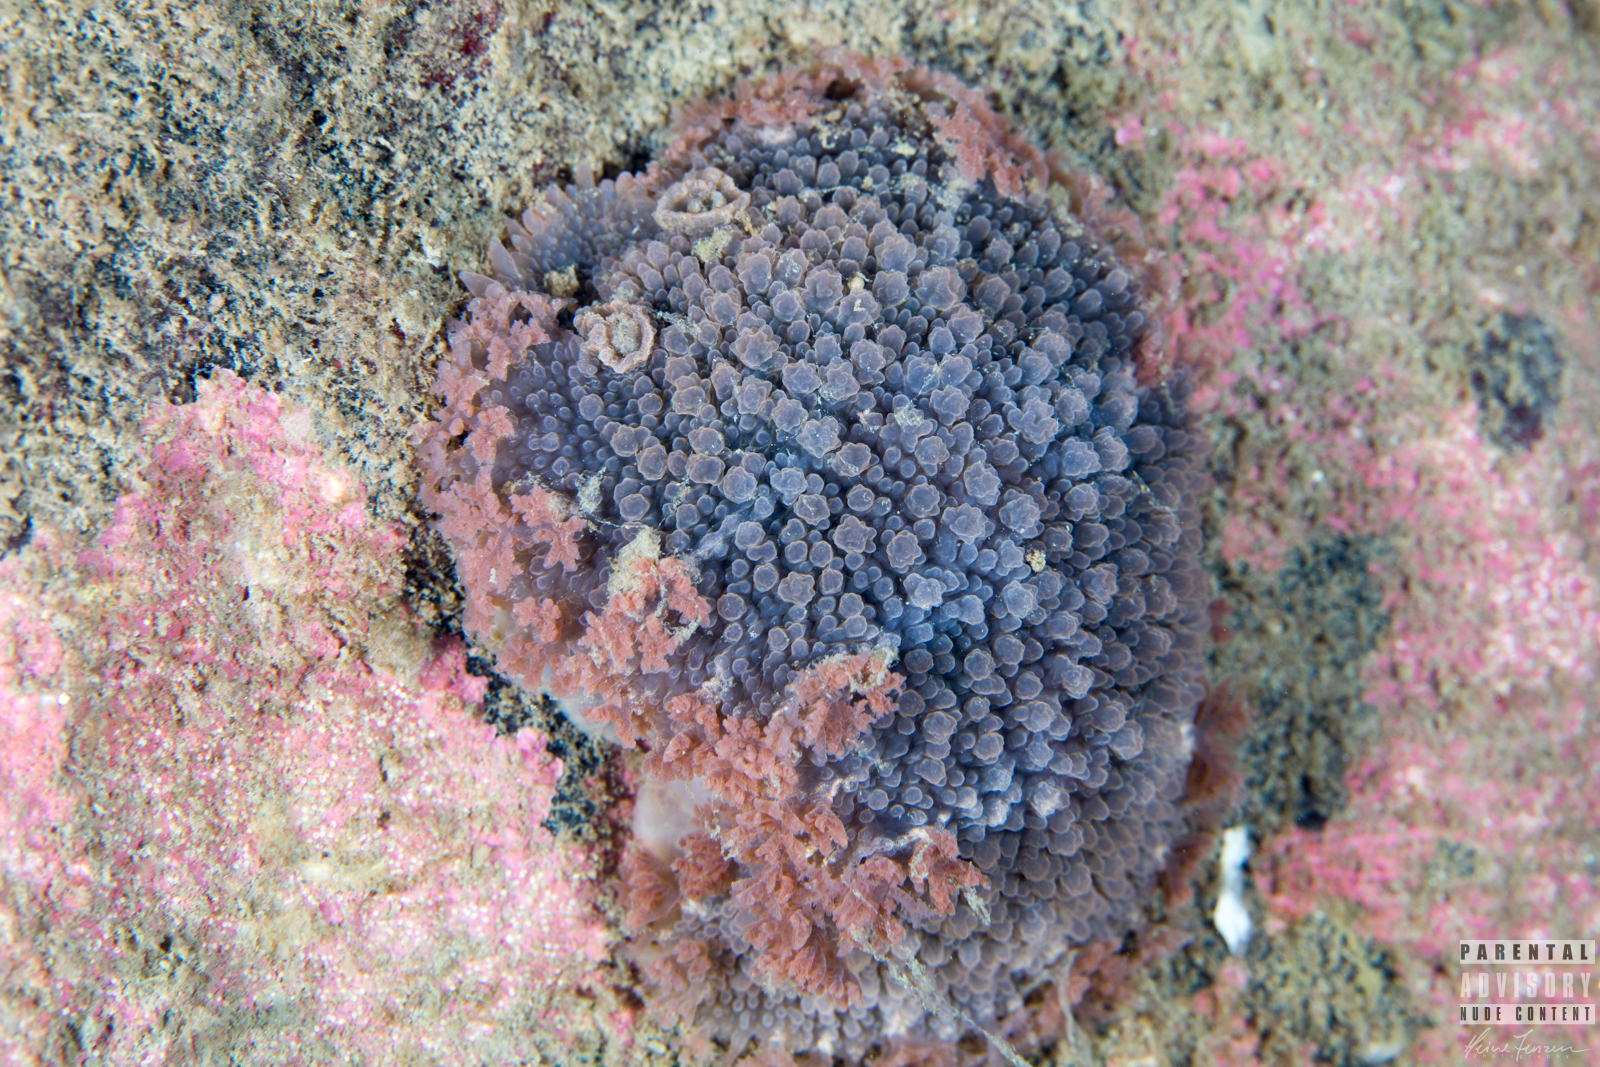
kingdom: Animalia
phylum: Mollusca
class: Gastropoda
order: Nudibranchia
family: Tritoniidae
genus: Tritonia
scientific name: Tritonia hombergii
